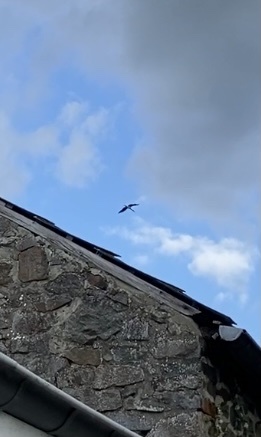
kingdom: Animalia
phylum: Chordata
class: Aves
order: Ciconiiformes
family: Ciconiidae
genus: Ciconia
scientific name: Ciconia nigra
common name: Black stork
